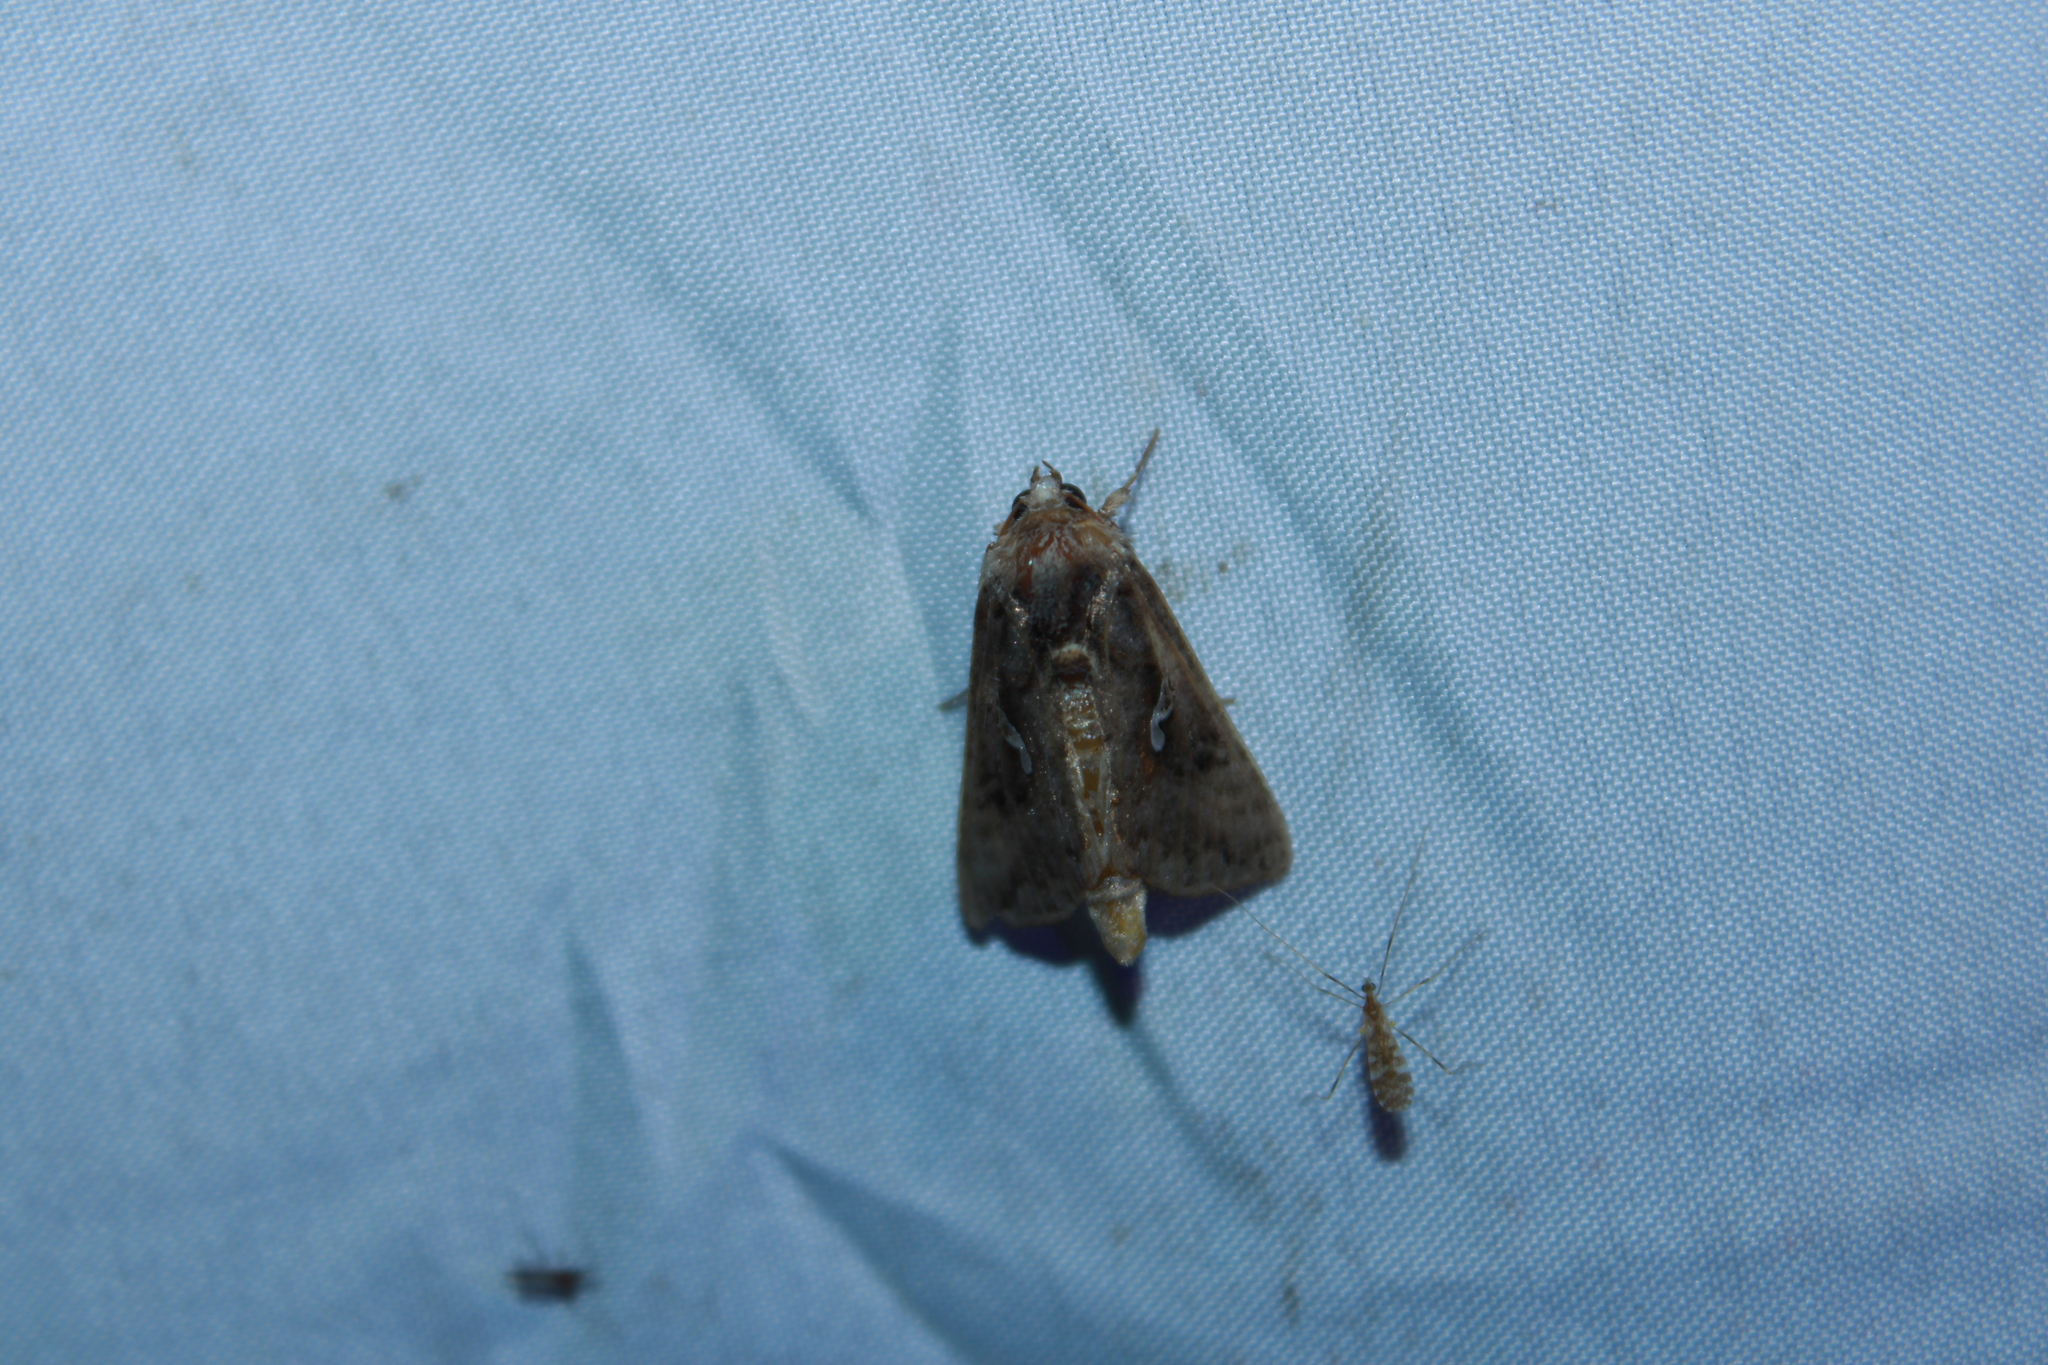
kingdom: Animalia
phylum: Arthropoda
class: Insecta
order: Lepidoptera
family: Noctuidae
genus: Autographa
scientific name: Autographa precationis
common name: Common looper moth
